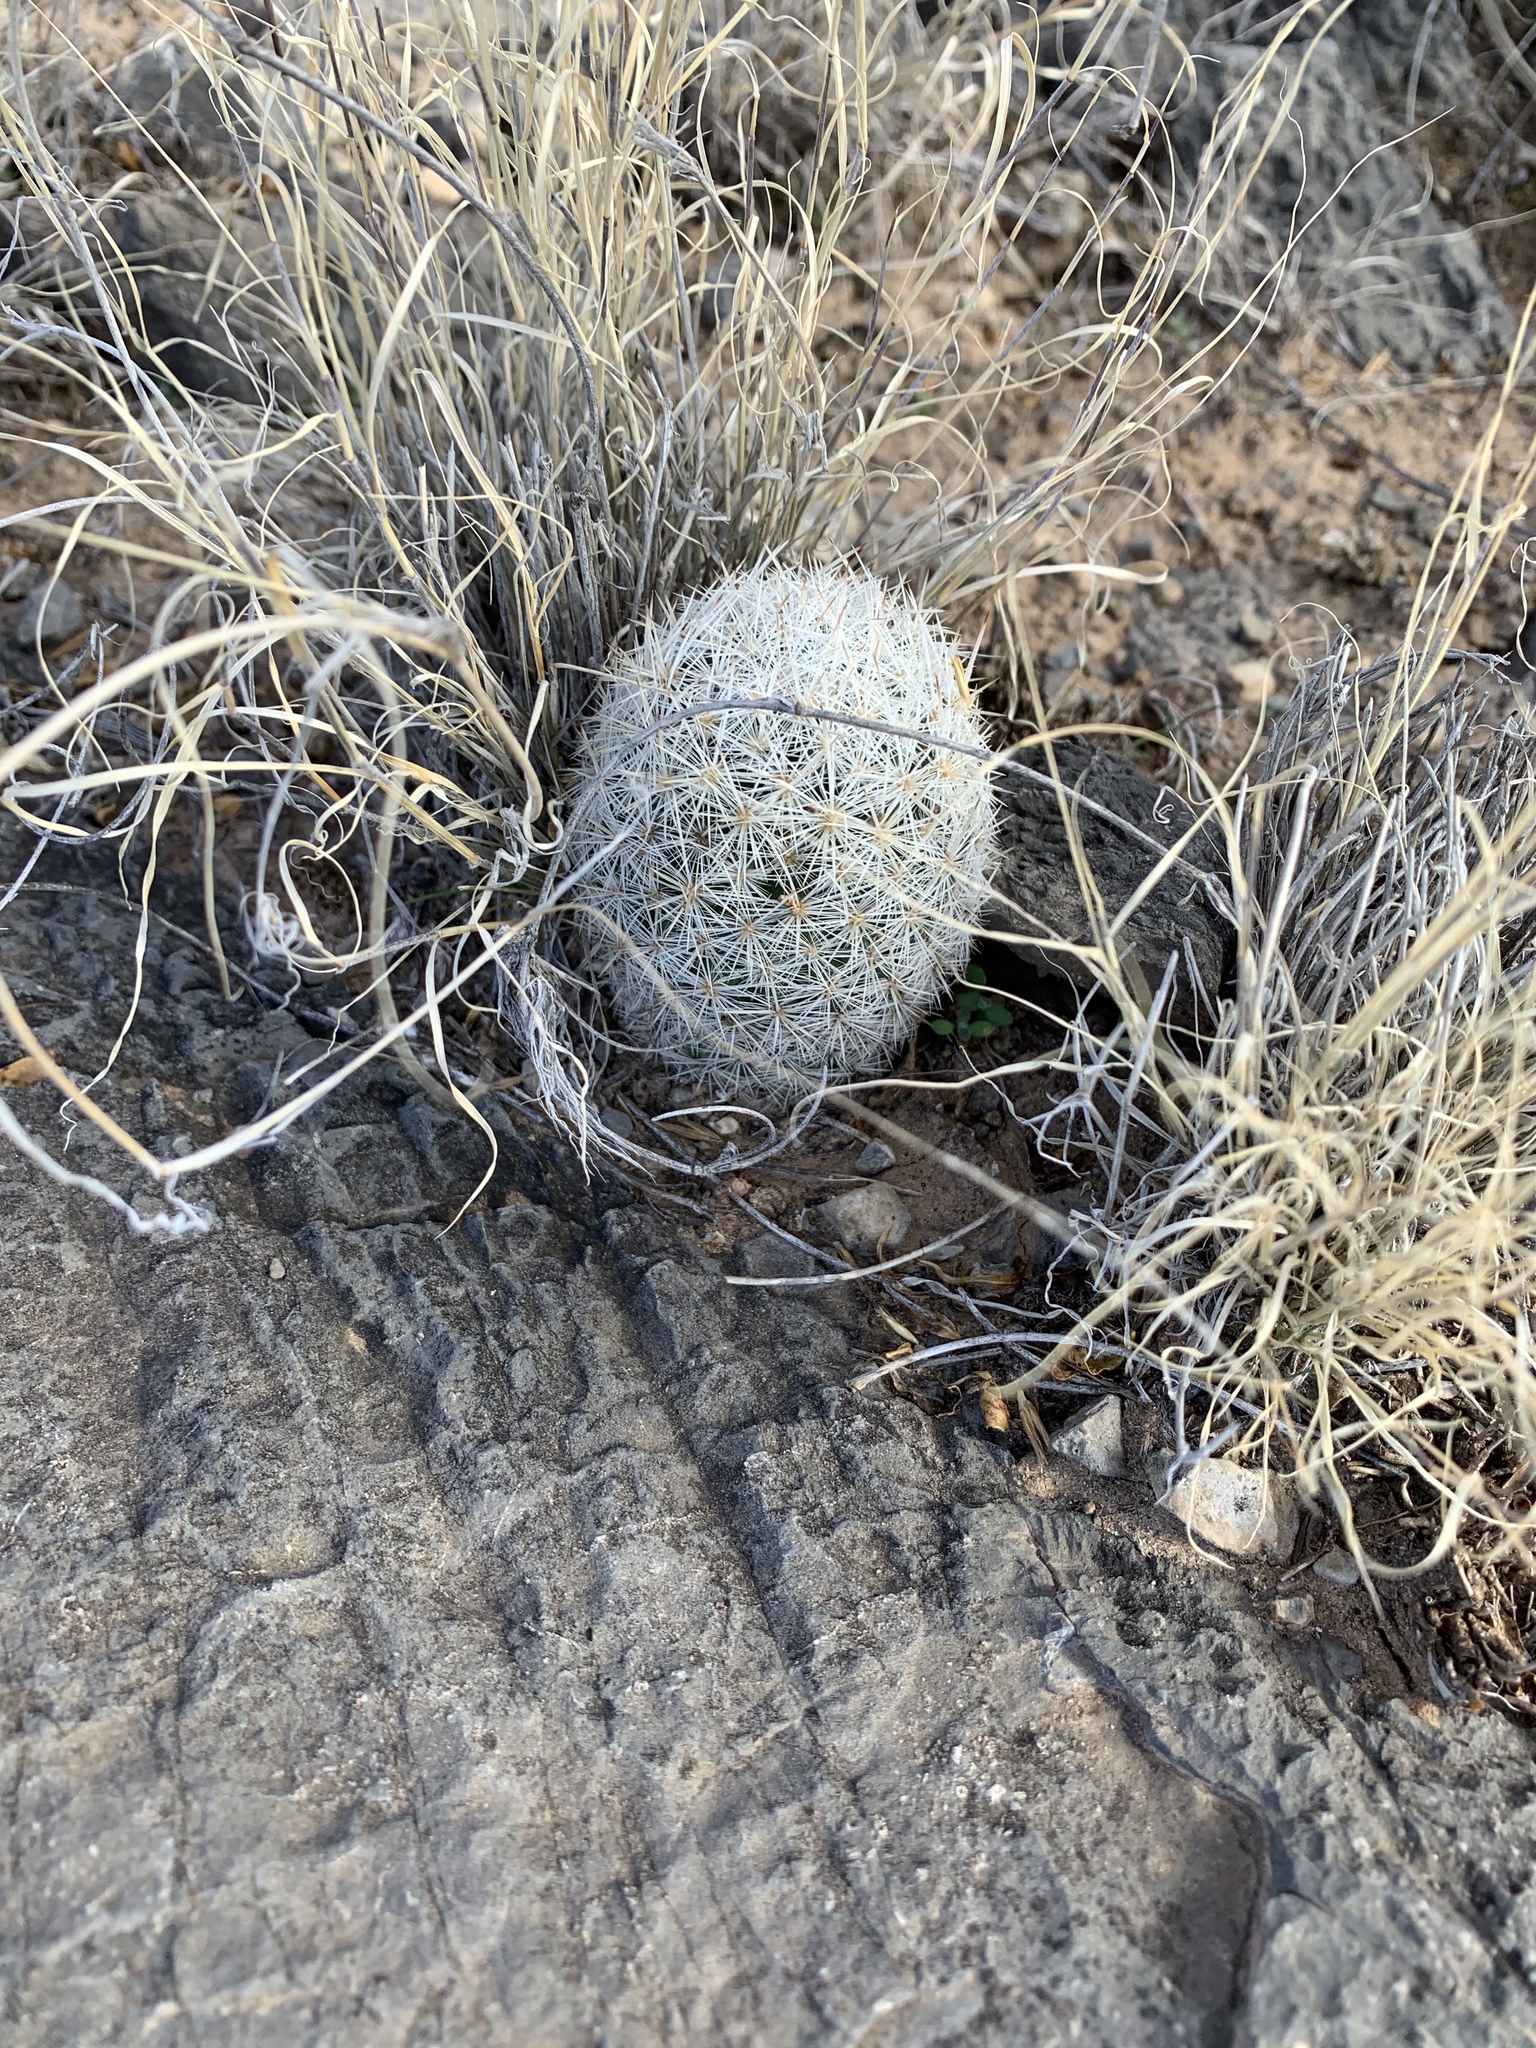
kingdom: Plantae
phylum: Tracheophyta
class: Magnoliopsida
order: Caryophyllales
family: Cactaceae
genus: Pelecyphora
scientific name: Pelecyphora sneedii
